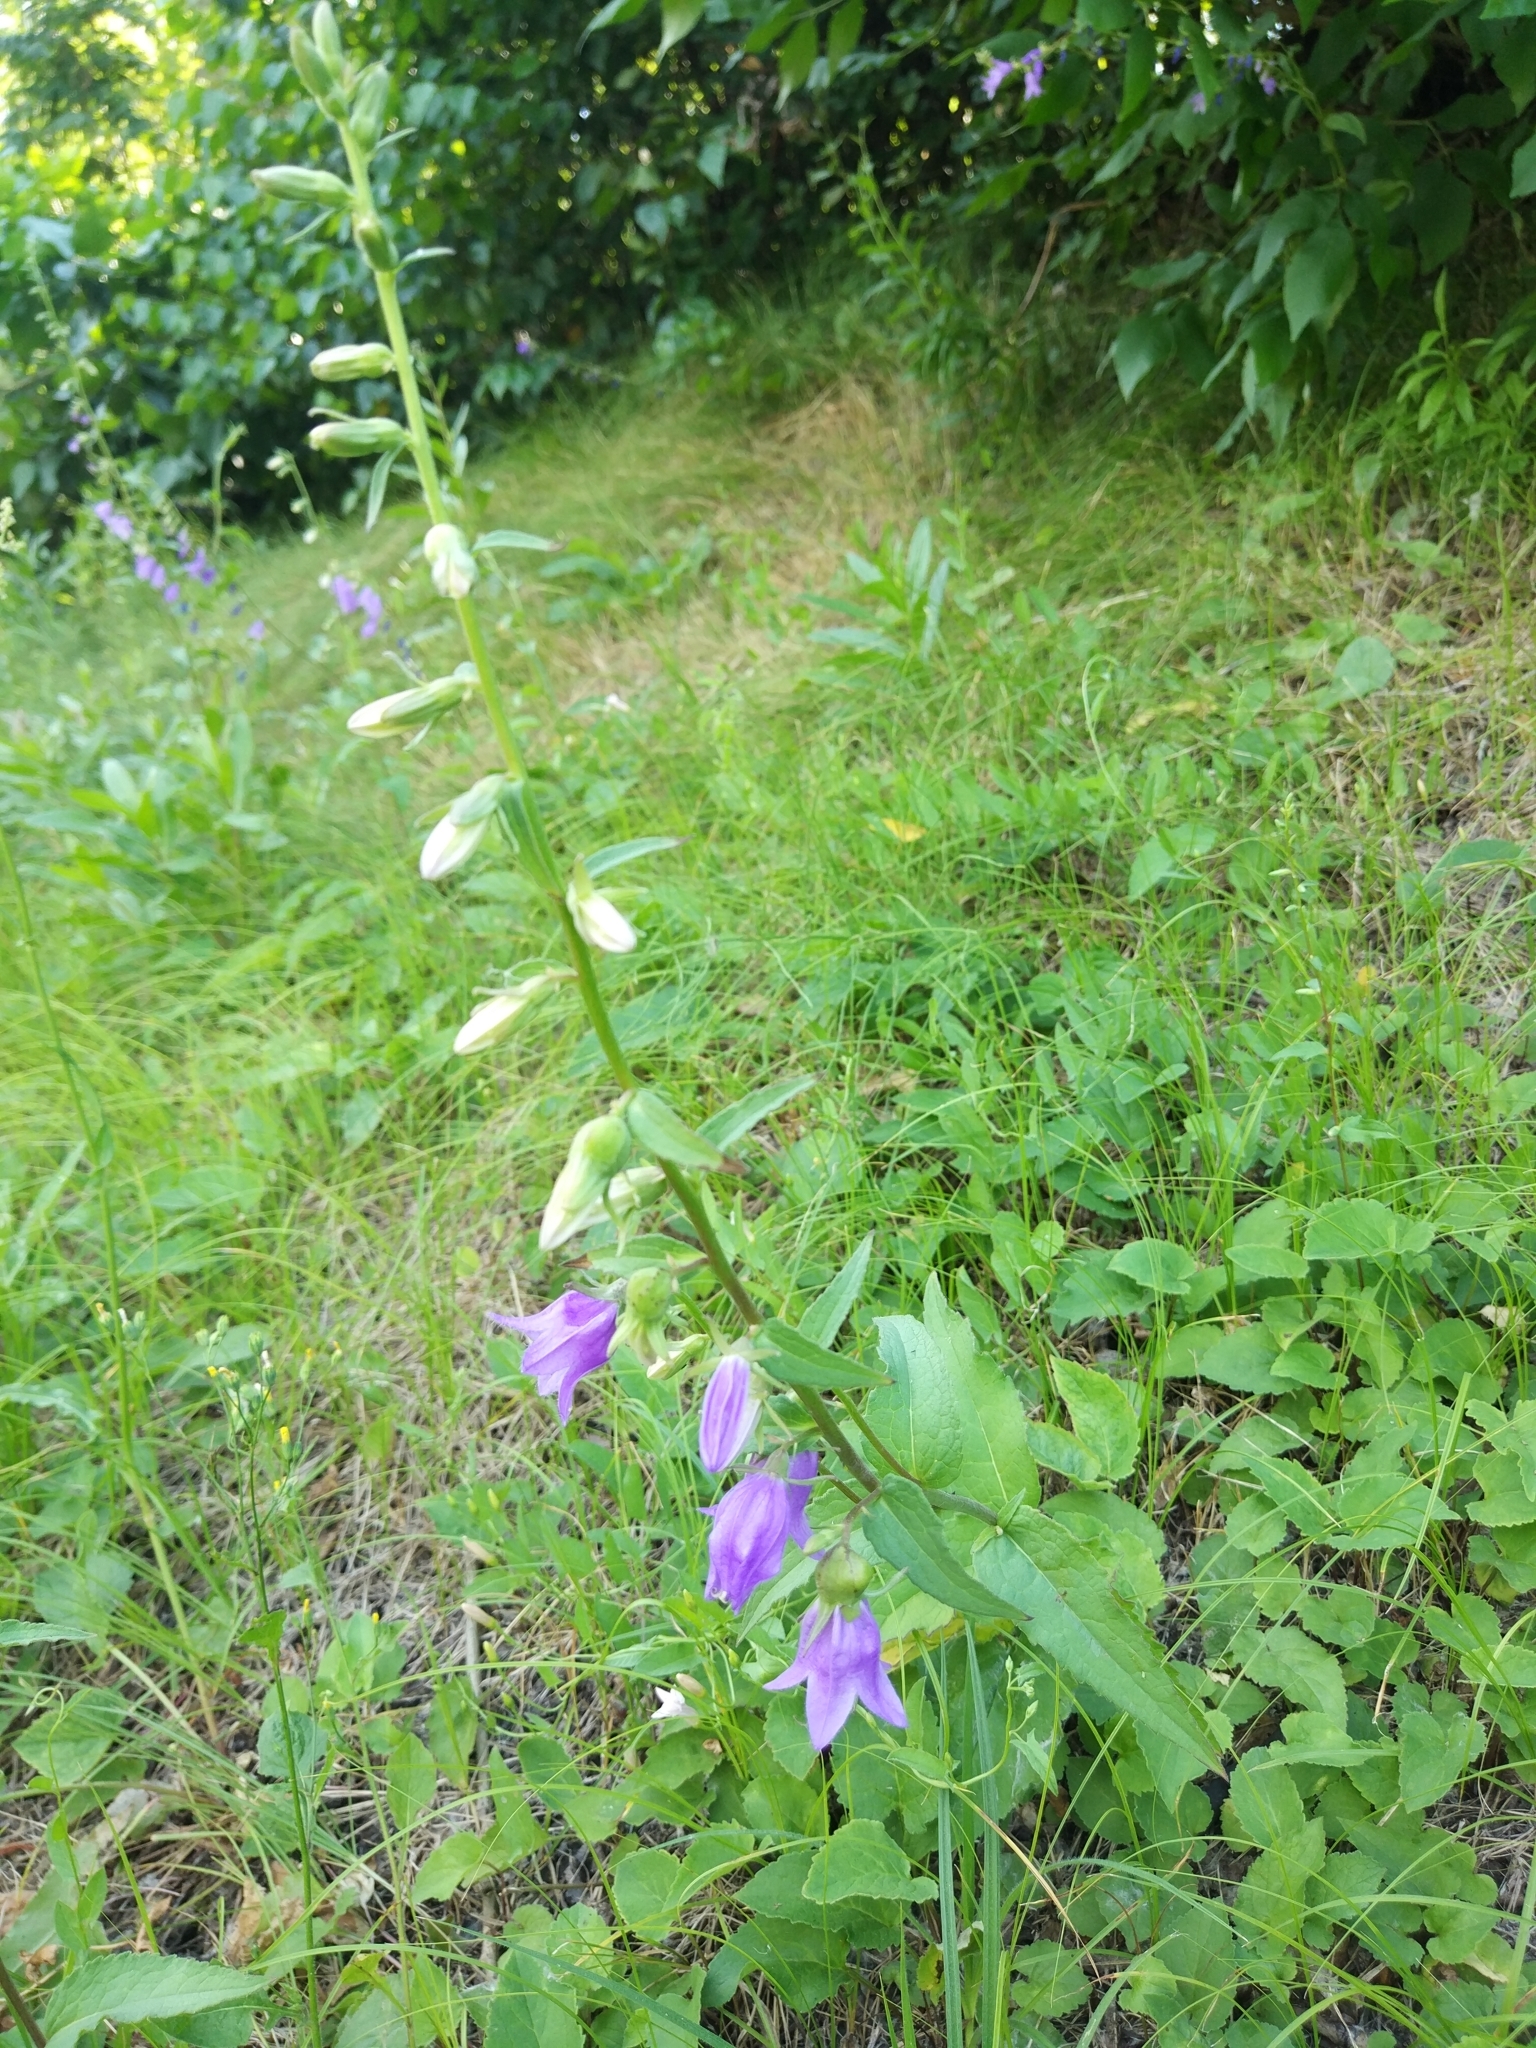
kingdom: Plantae
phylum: Tracheophyta
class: Magnoliopsida
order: Asterales
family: Campanulaceae
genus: Campanula
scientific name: Campanula rapunculoides
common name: Creeping bellflower
